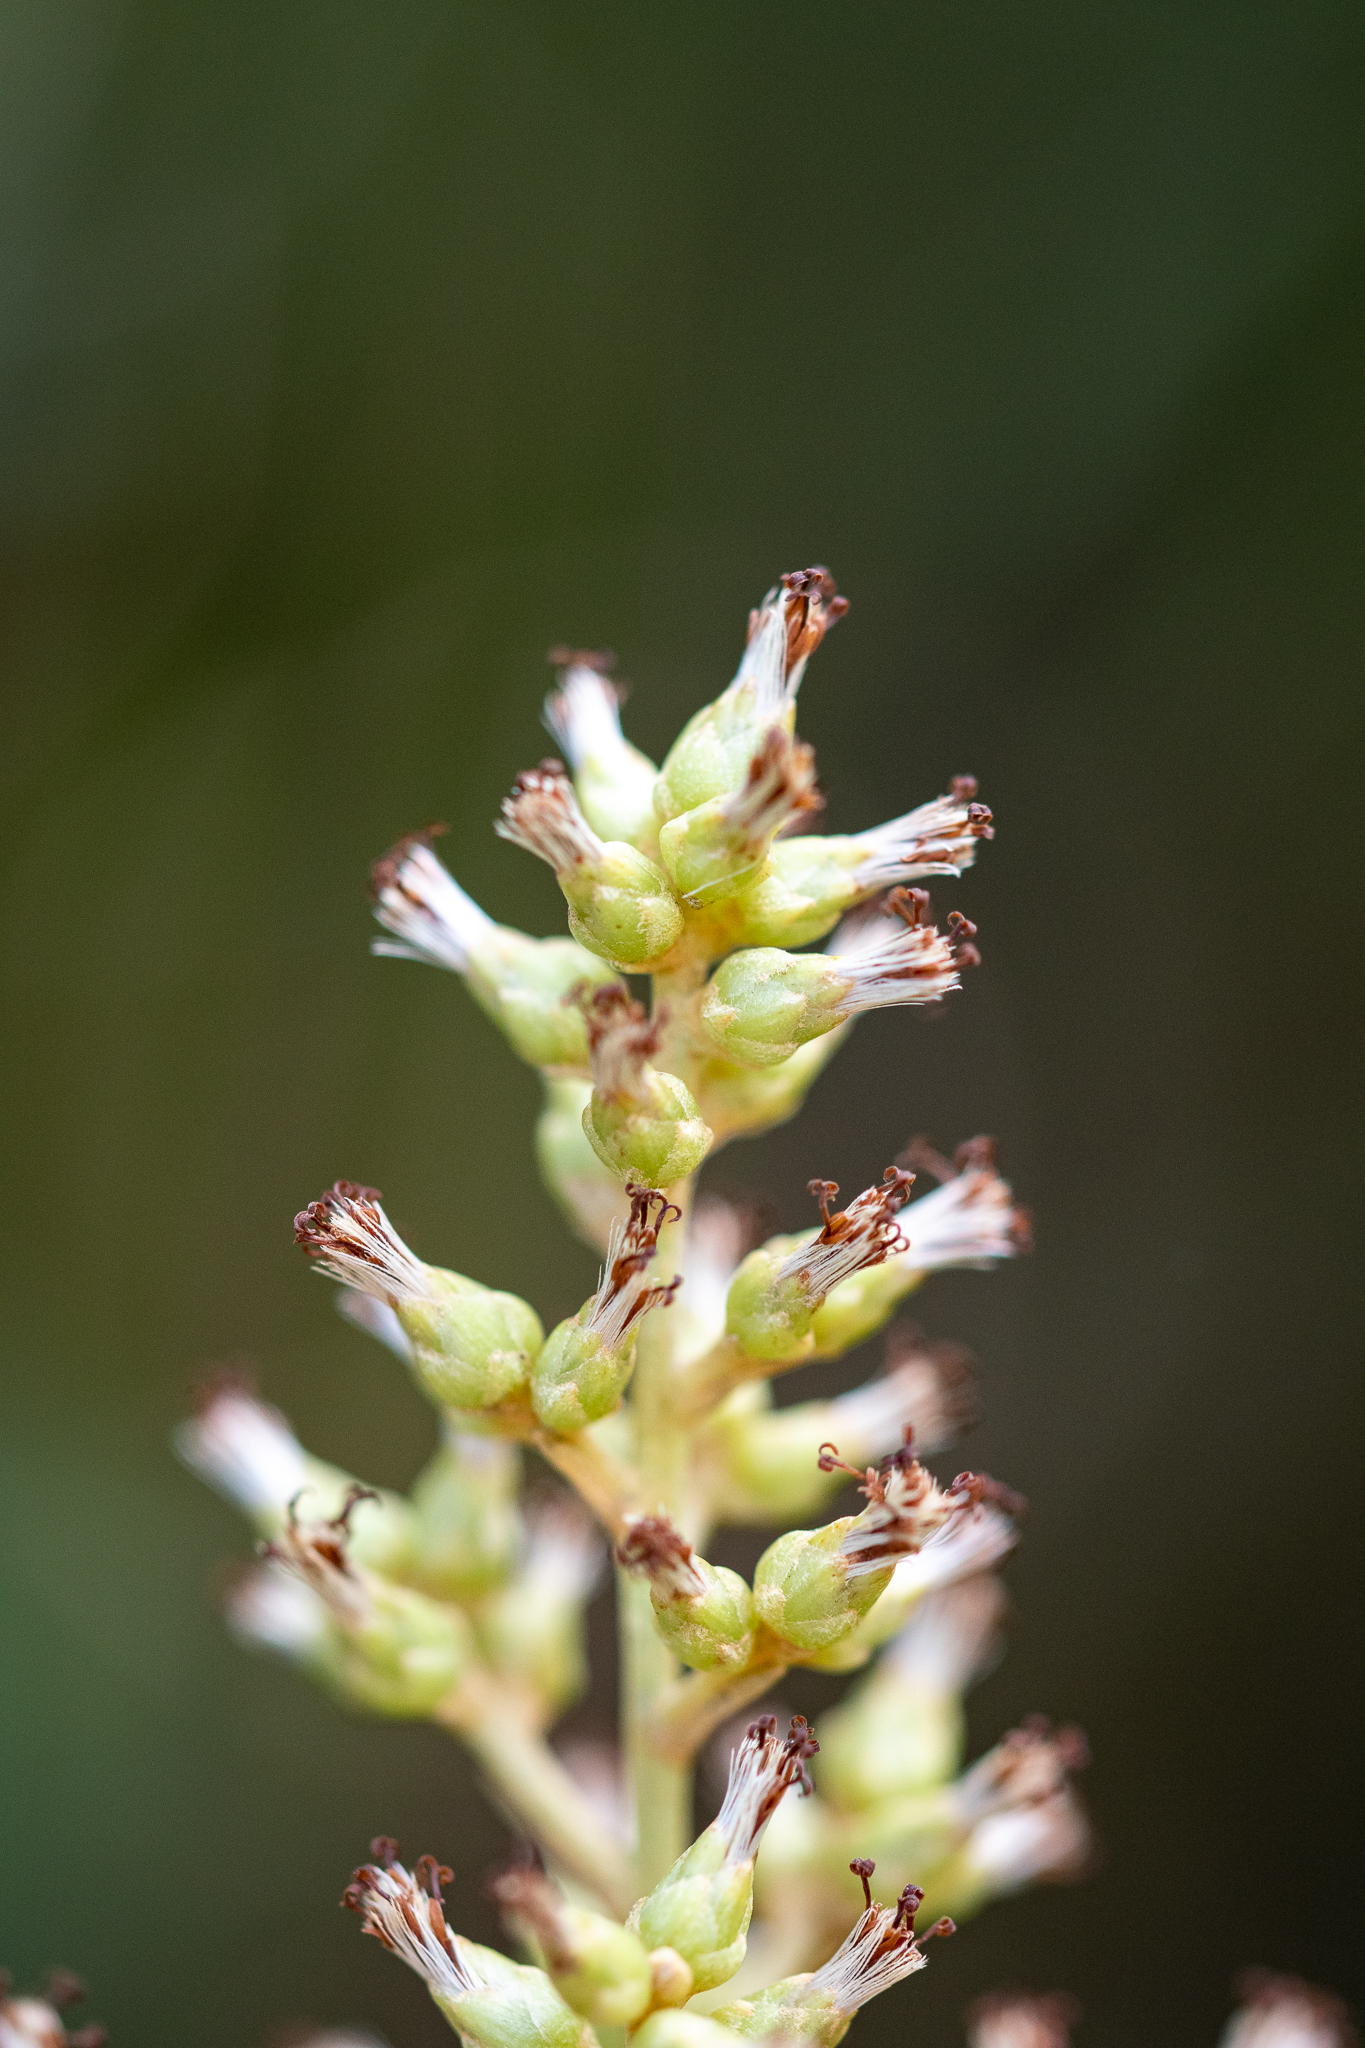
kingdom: Plantae
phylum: Tracheophyta
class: Magnoliopsida
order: Asterales
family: Asteraceae
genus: Brachylaena
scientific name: Brachylaena neriifolia
